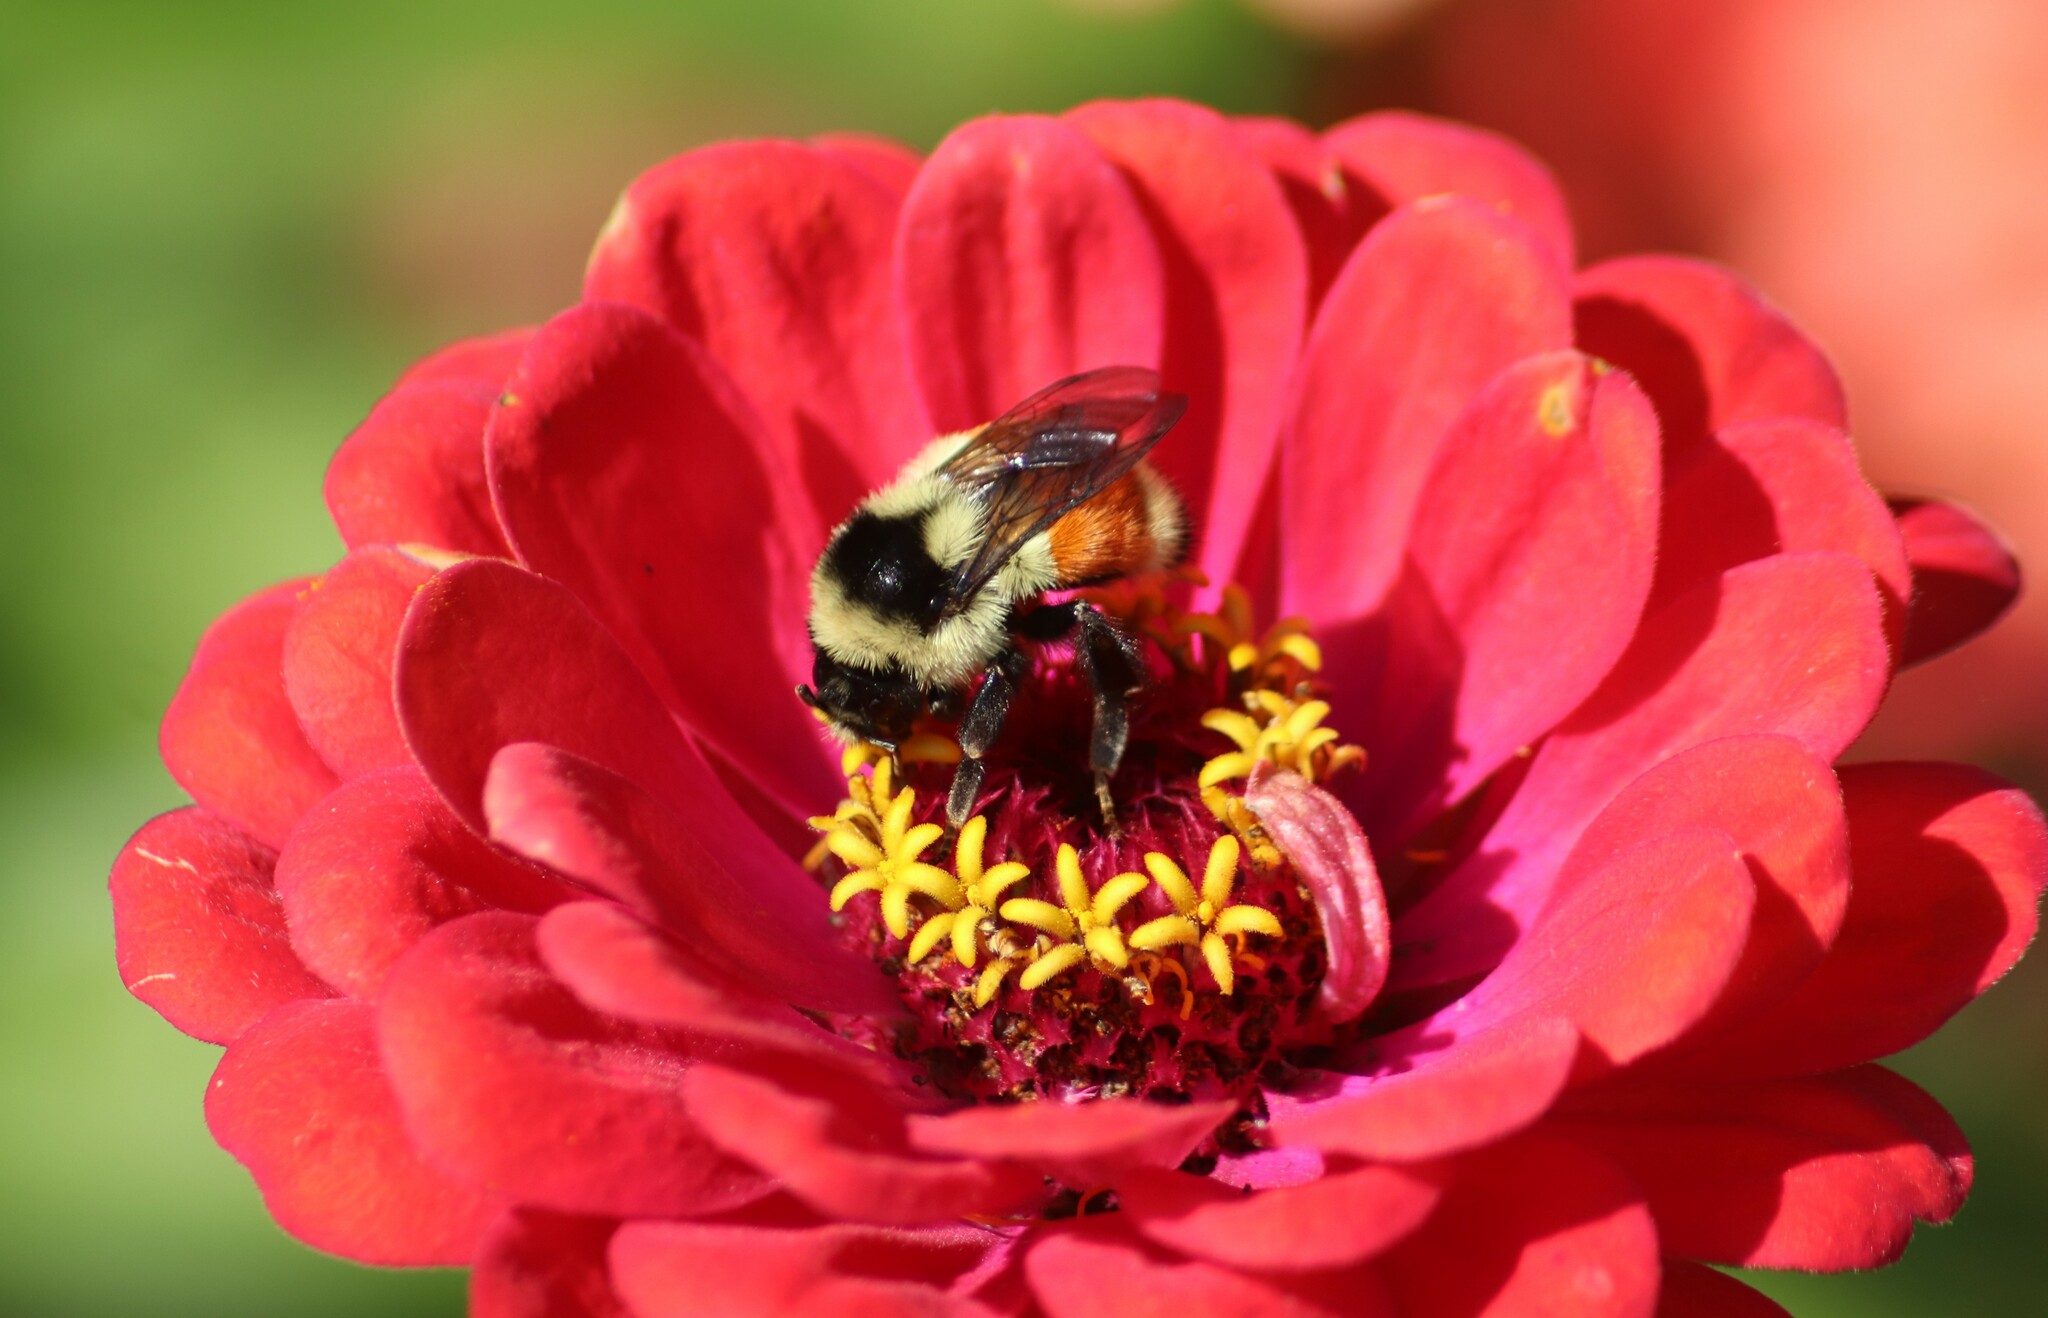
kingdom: Animalia
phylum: Arthropoda
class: Insecta
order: Hymenoptera
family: Apidae
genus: Bombus
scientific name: Bombus ternarius
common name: Tri-colored bumble bee
